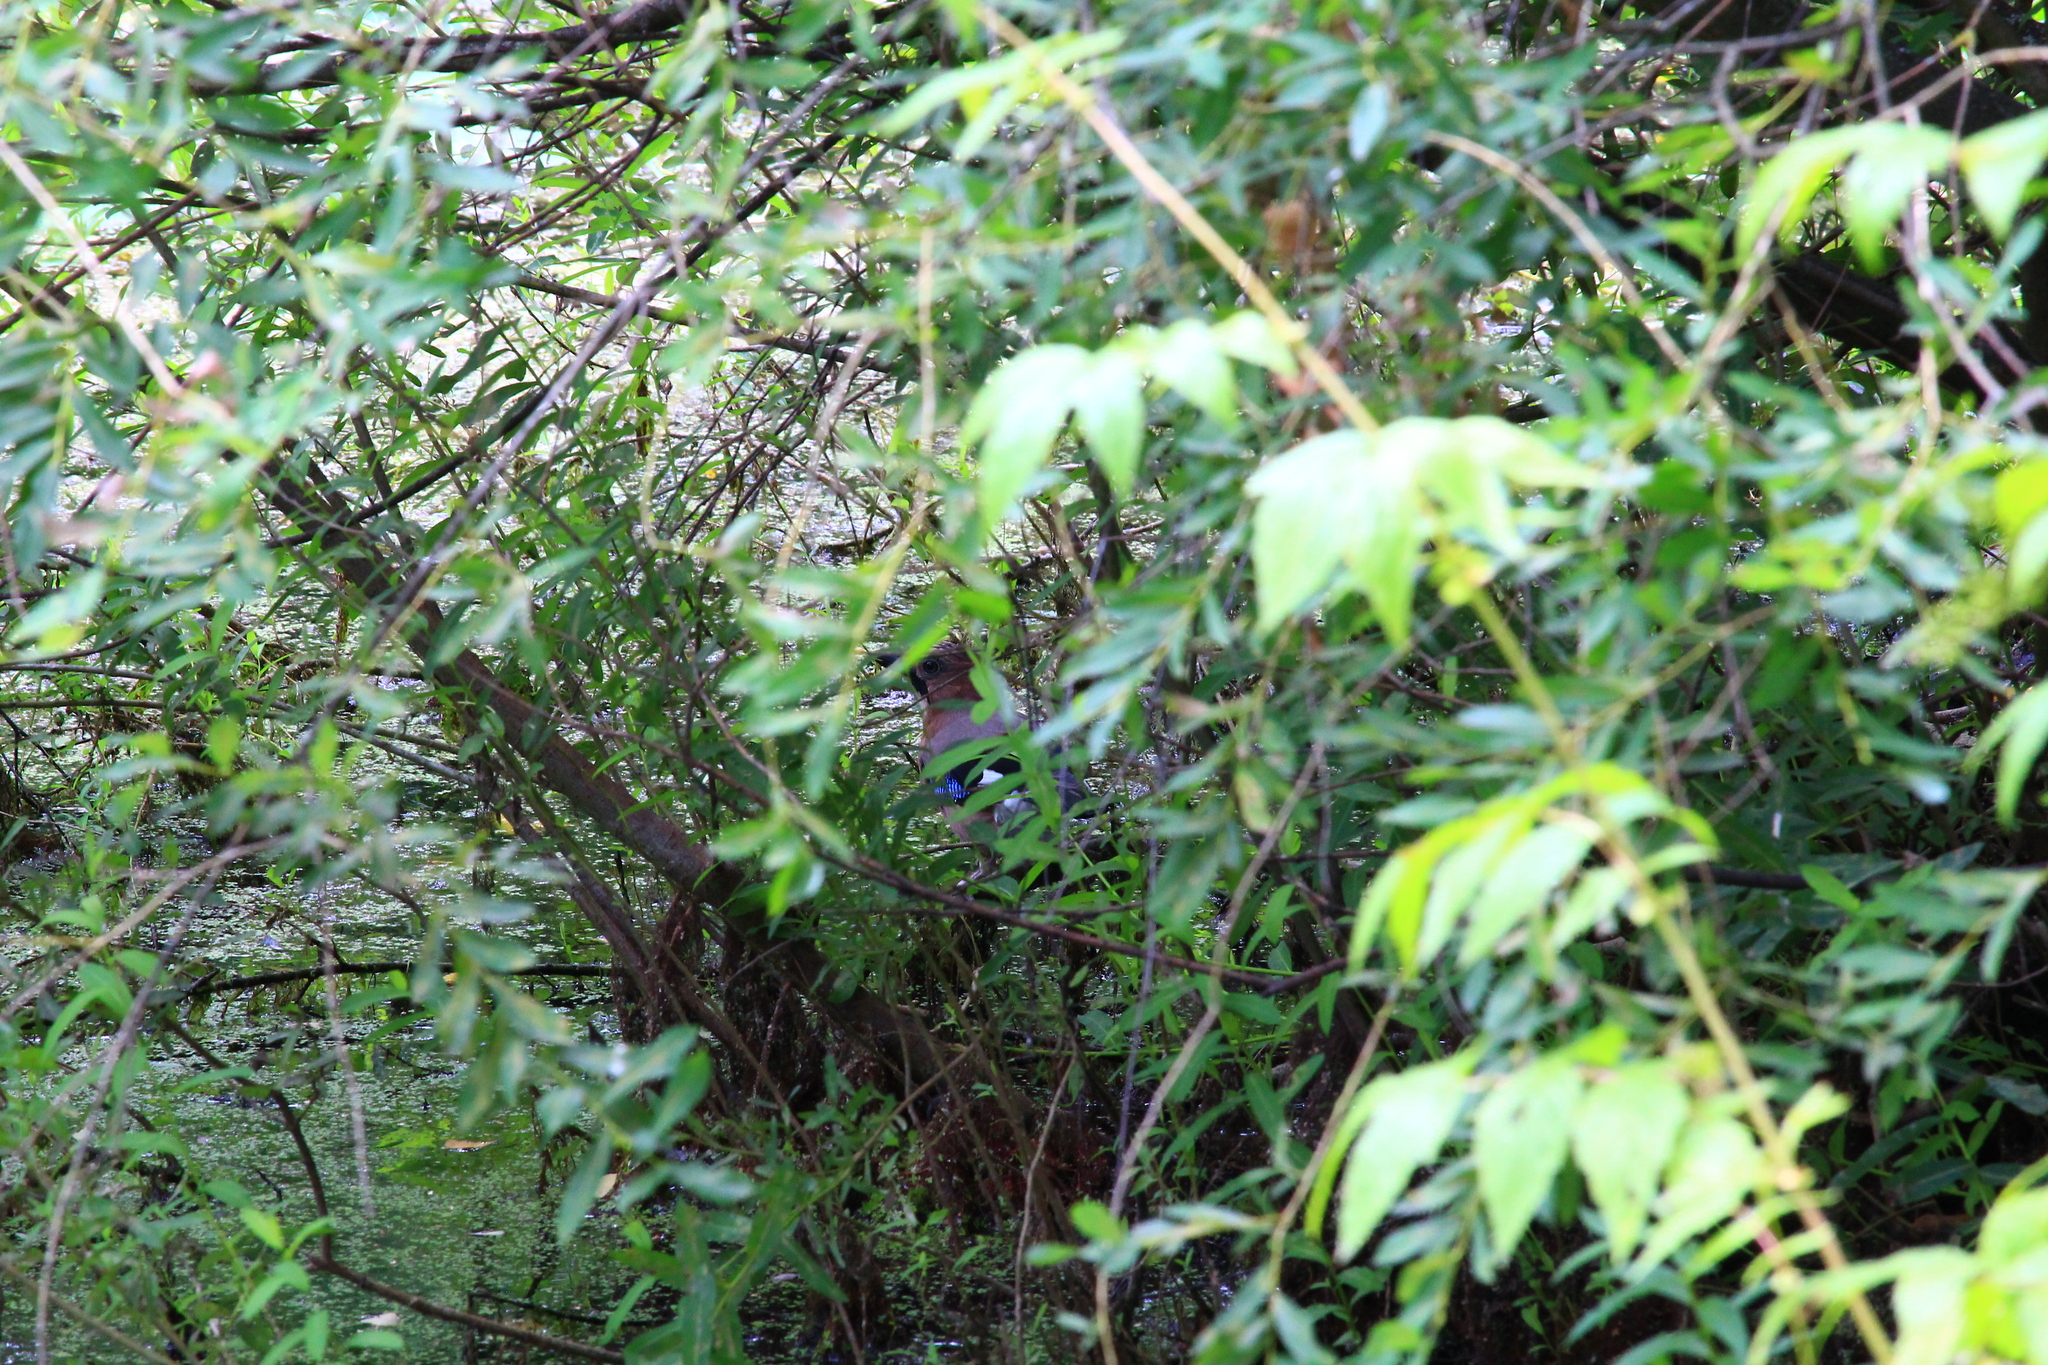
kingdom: Animalia
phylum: Chordata
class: Aves
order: Passeriformes
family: Corvidae
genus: Garrulus
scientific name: Garrulus glandarius
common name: Eurasian jay
